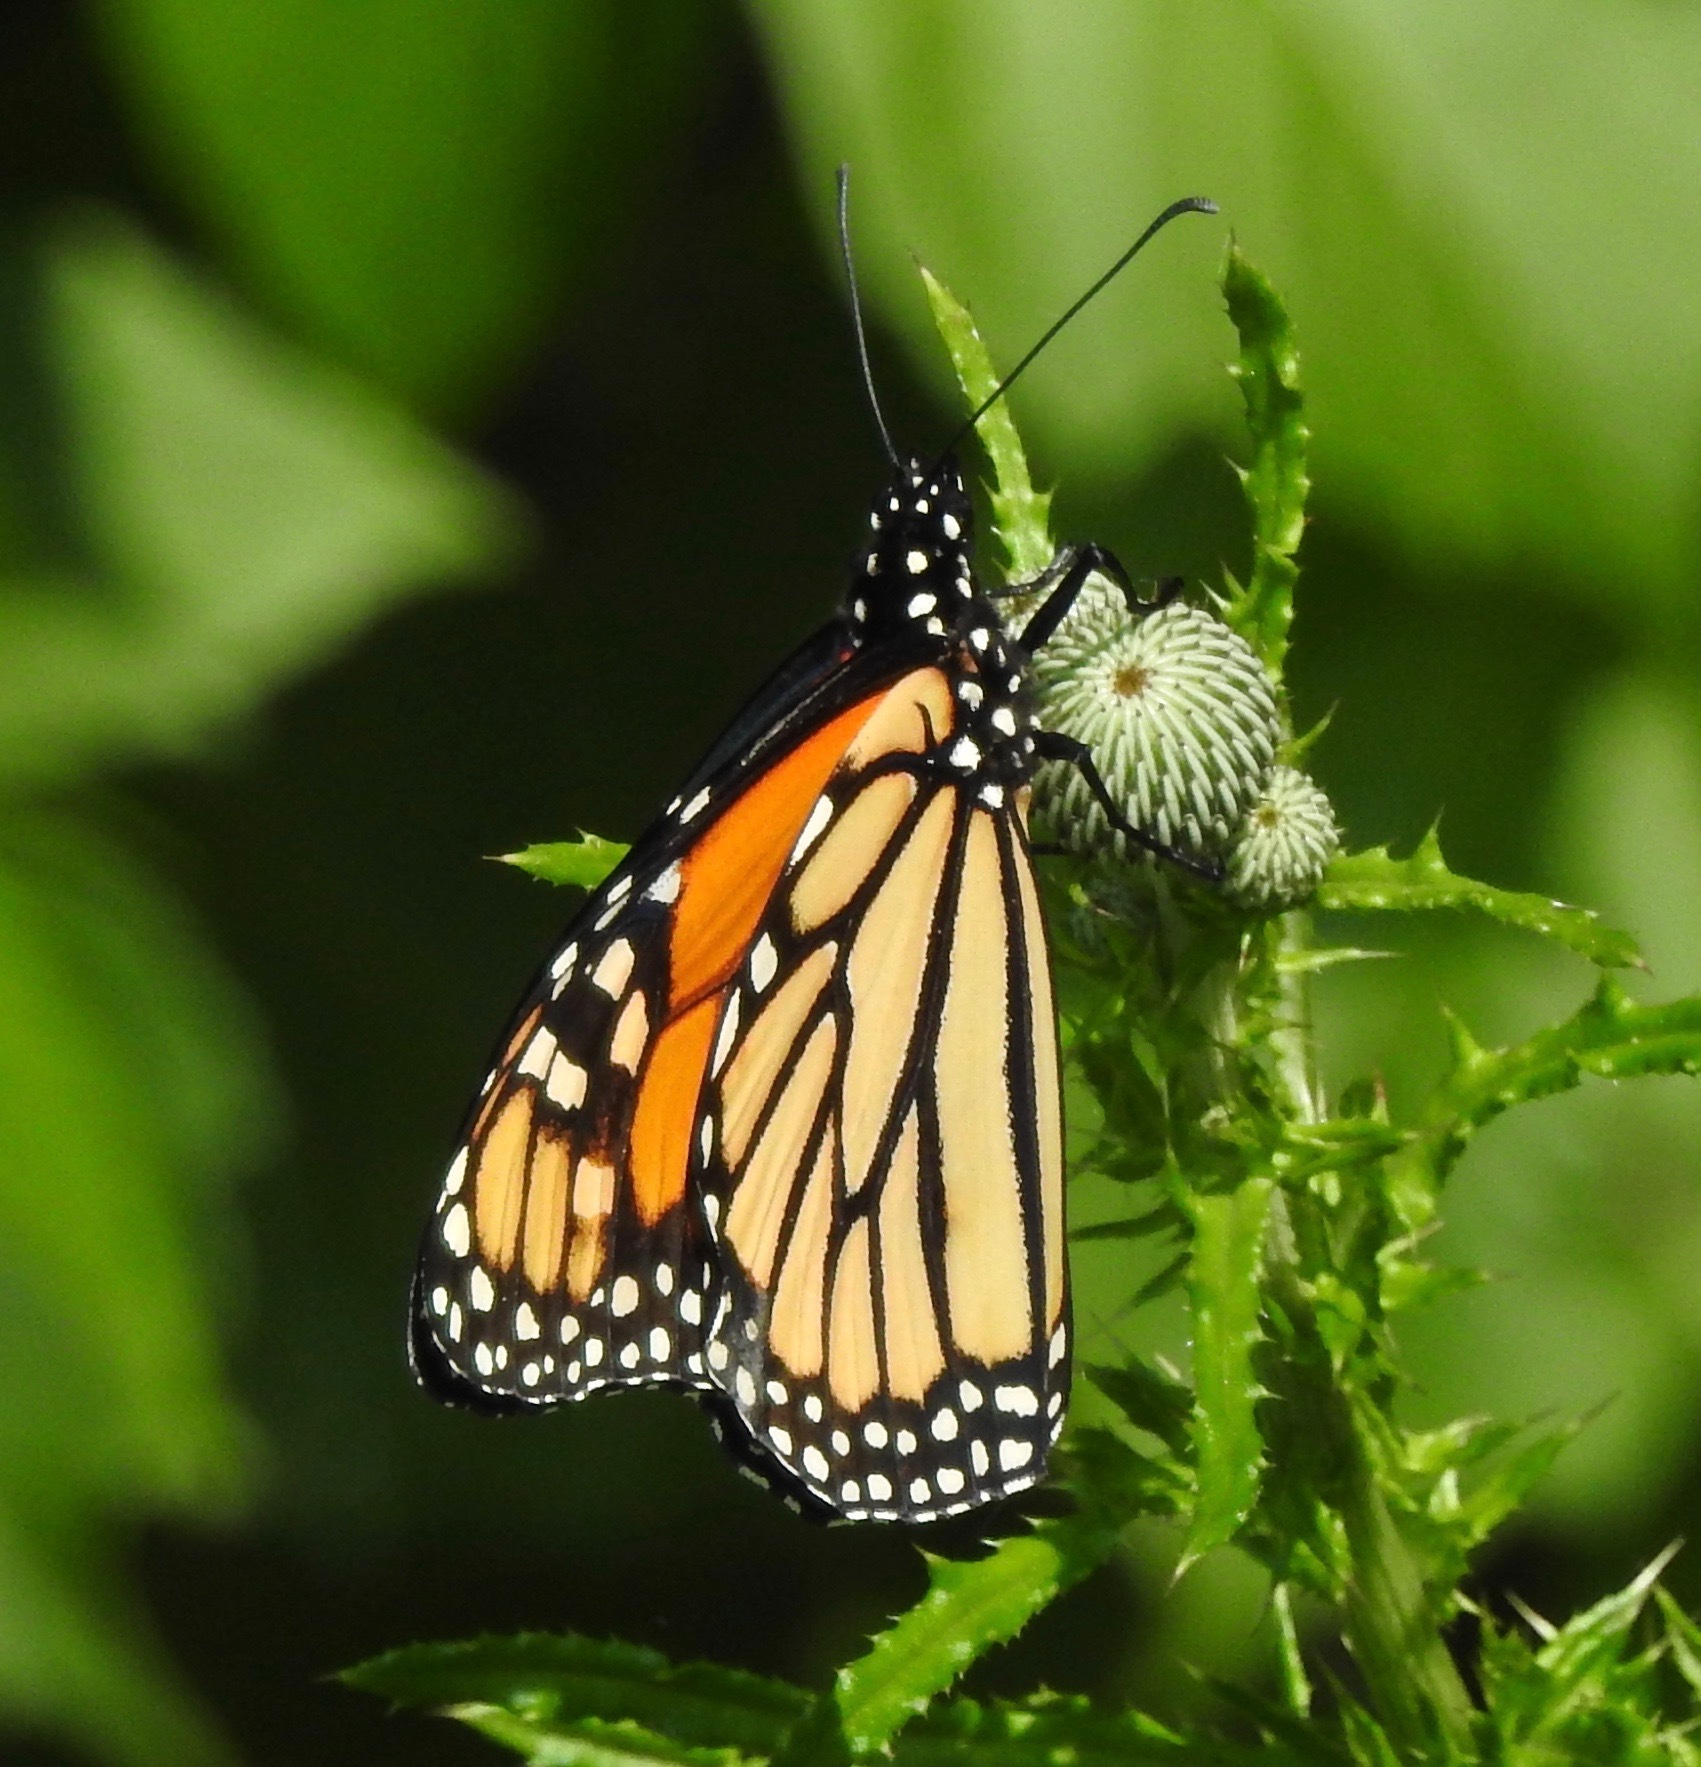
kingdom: Animalia
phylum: Arthropoda
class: Insecta
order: Lepidoptera
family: Nymphalidae
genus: Danaus
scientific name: Danaus plexippus
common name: Monarch
